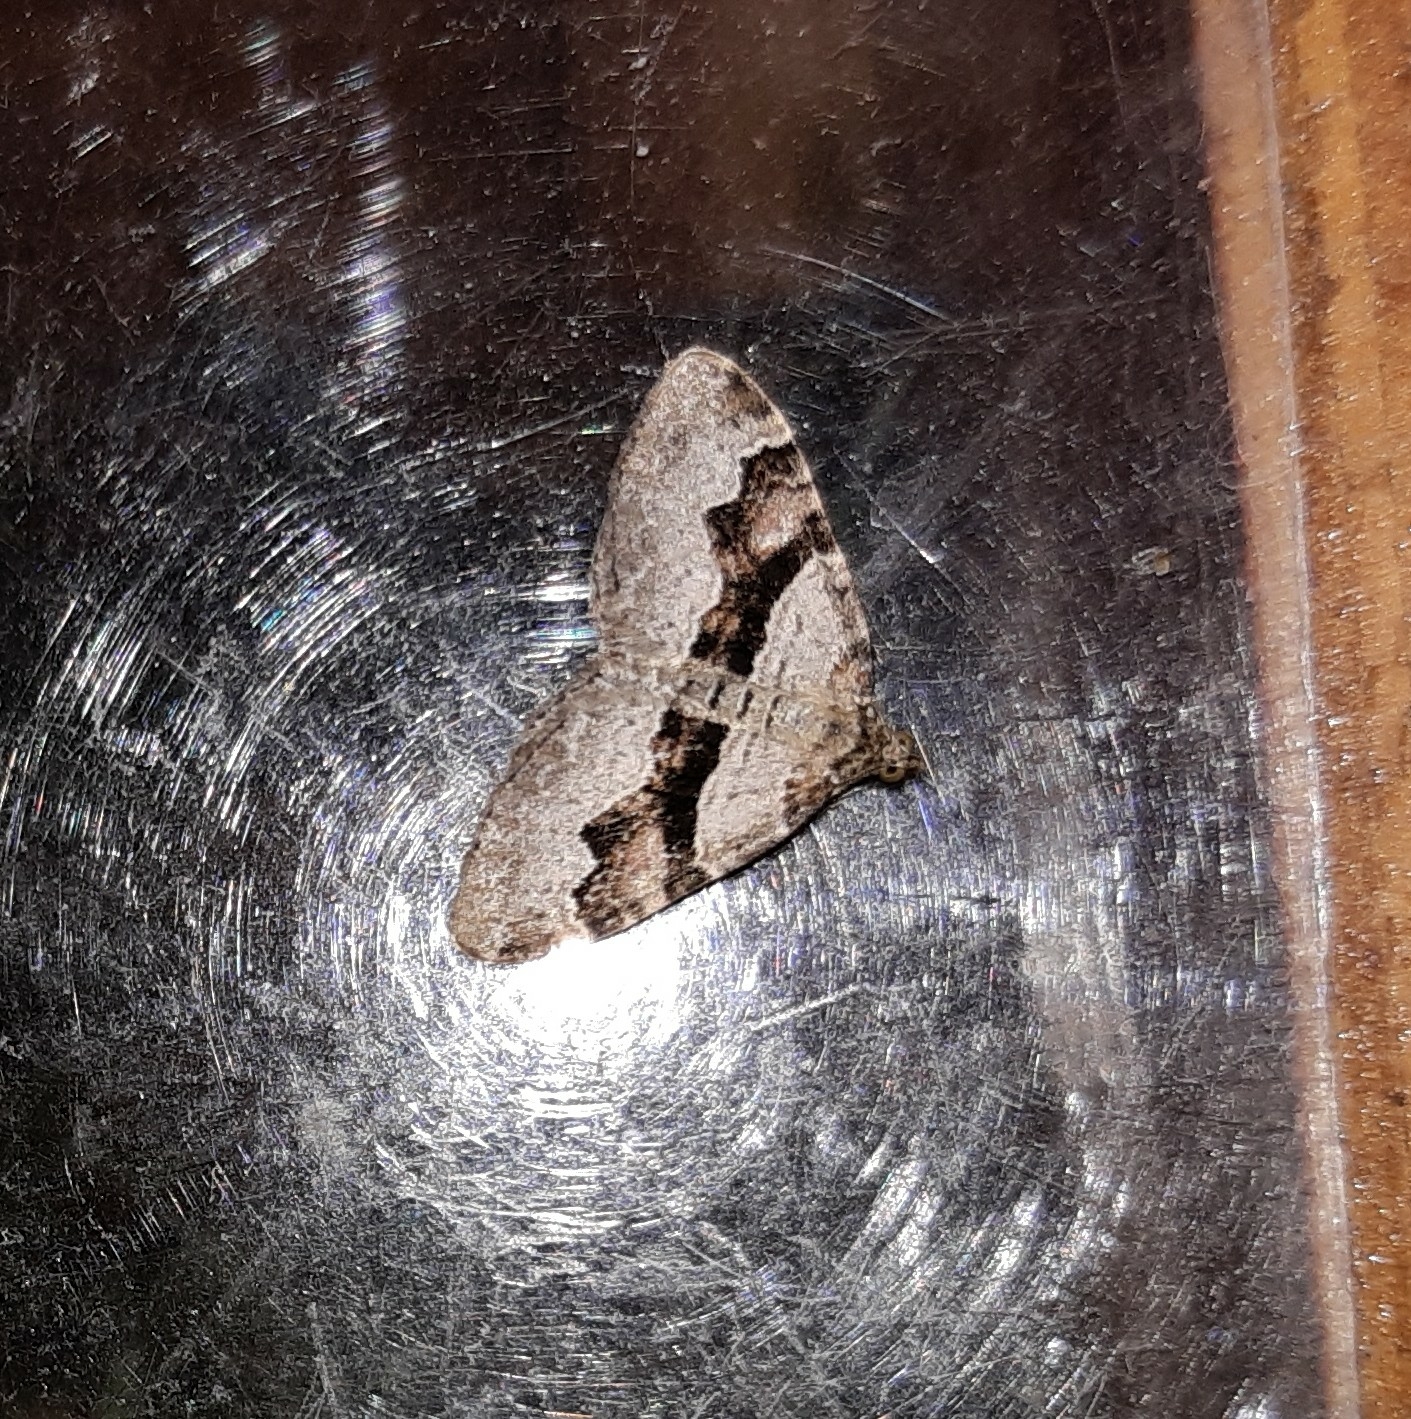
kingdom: Animalia
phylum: Arthropoda
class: Insecta
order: Lepidoptera
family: Geometridae
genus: Xanthorhoe
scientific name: Xanthorhoe designata
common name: Flame carpet
